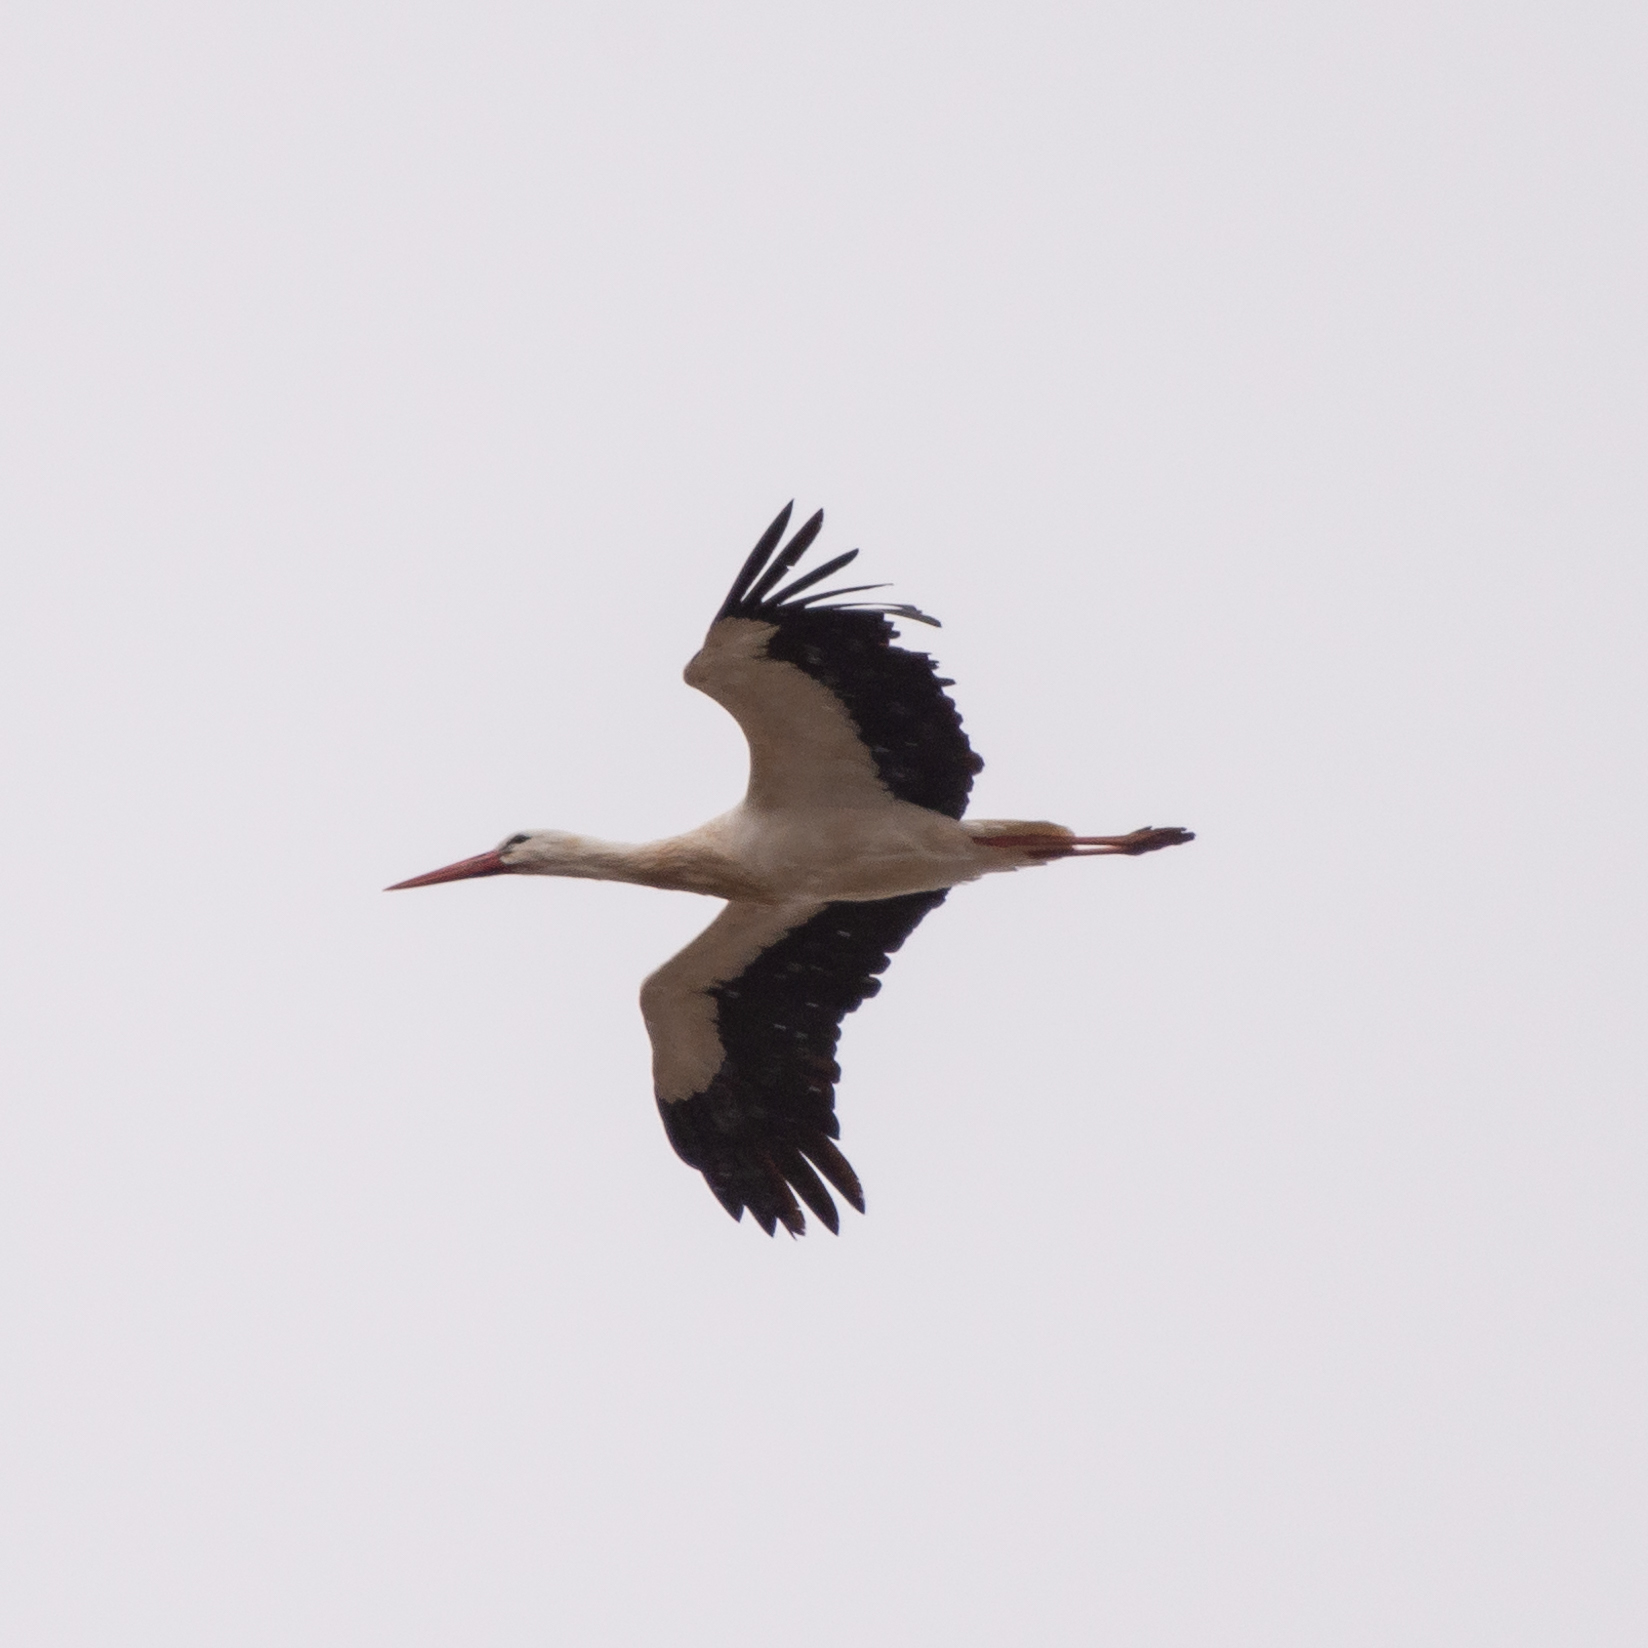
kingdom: Animalia
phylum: Chordata
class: Aves
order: Ciconiiformes
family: Ciconiidae
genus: Ciconia
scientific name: Ciconia ciconia
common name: White stork
